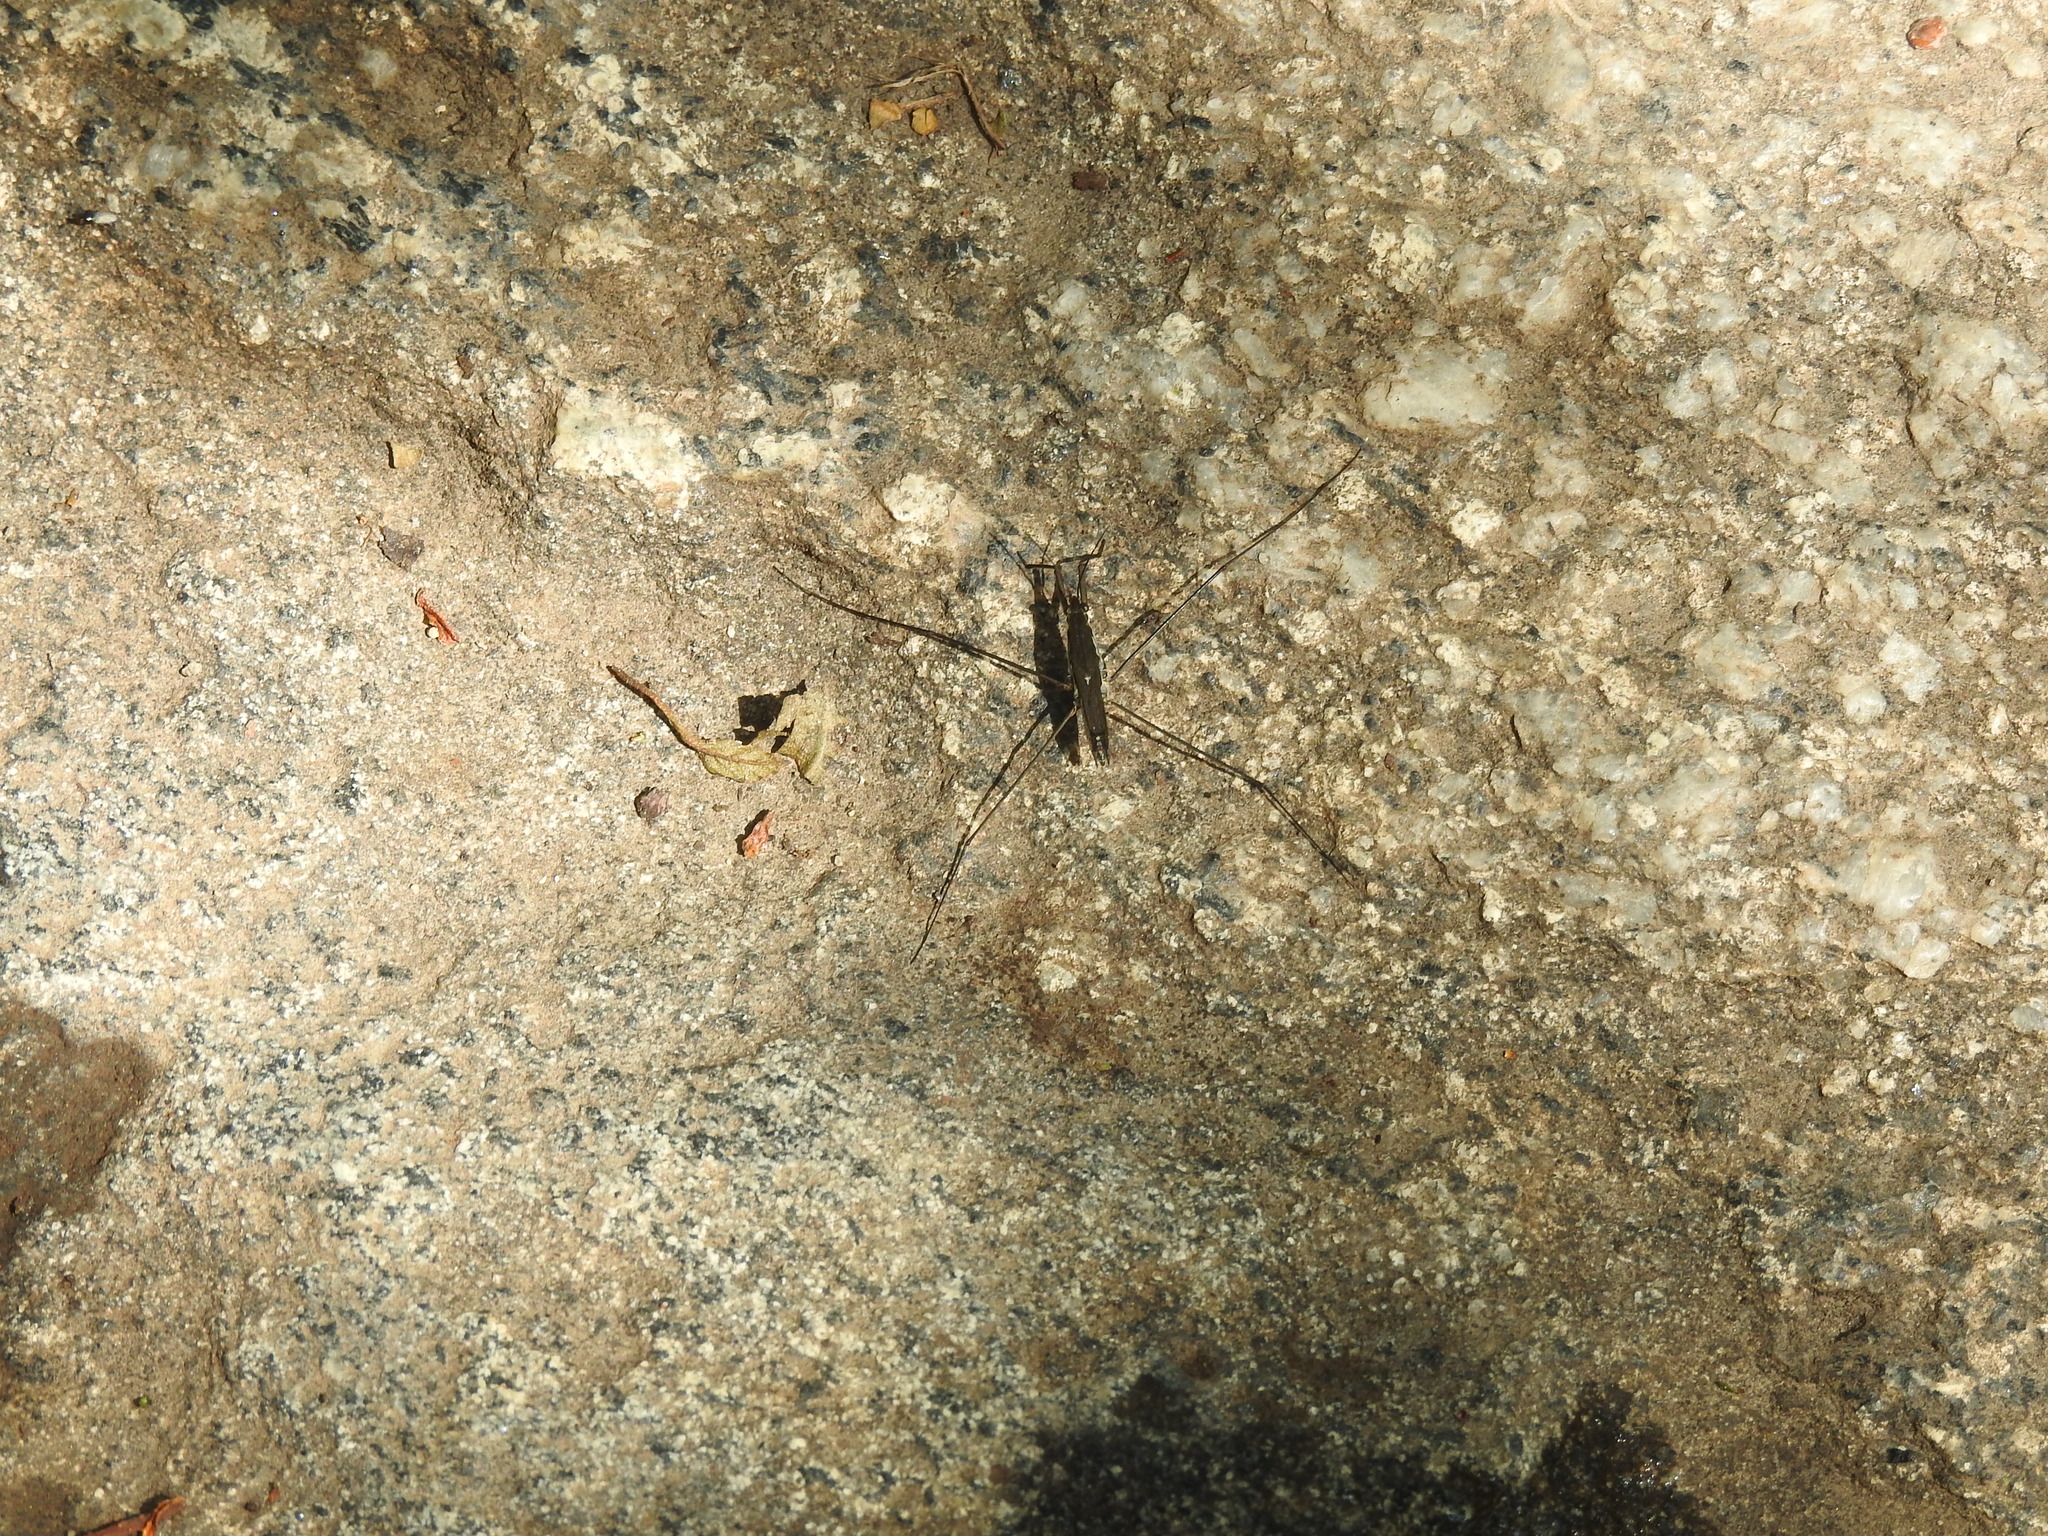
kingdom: Animalia
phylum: Arthropoda
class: Insecta
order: Hemiptera
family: Gerridae
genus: Aquarius
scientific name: Aquarius paludum
